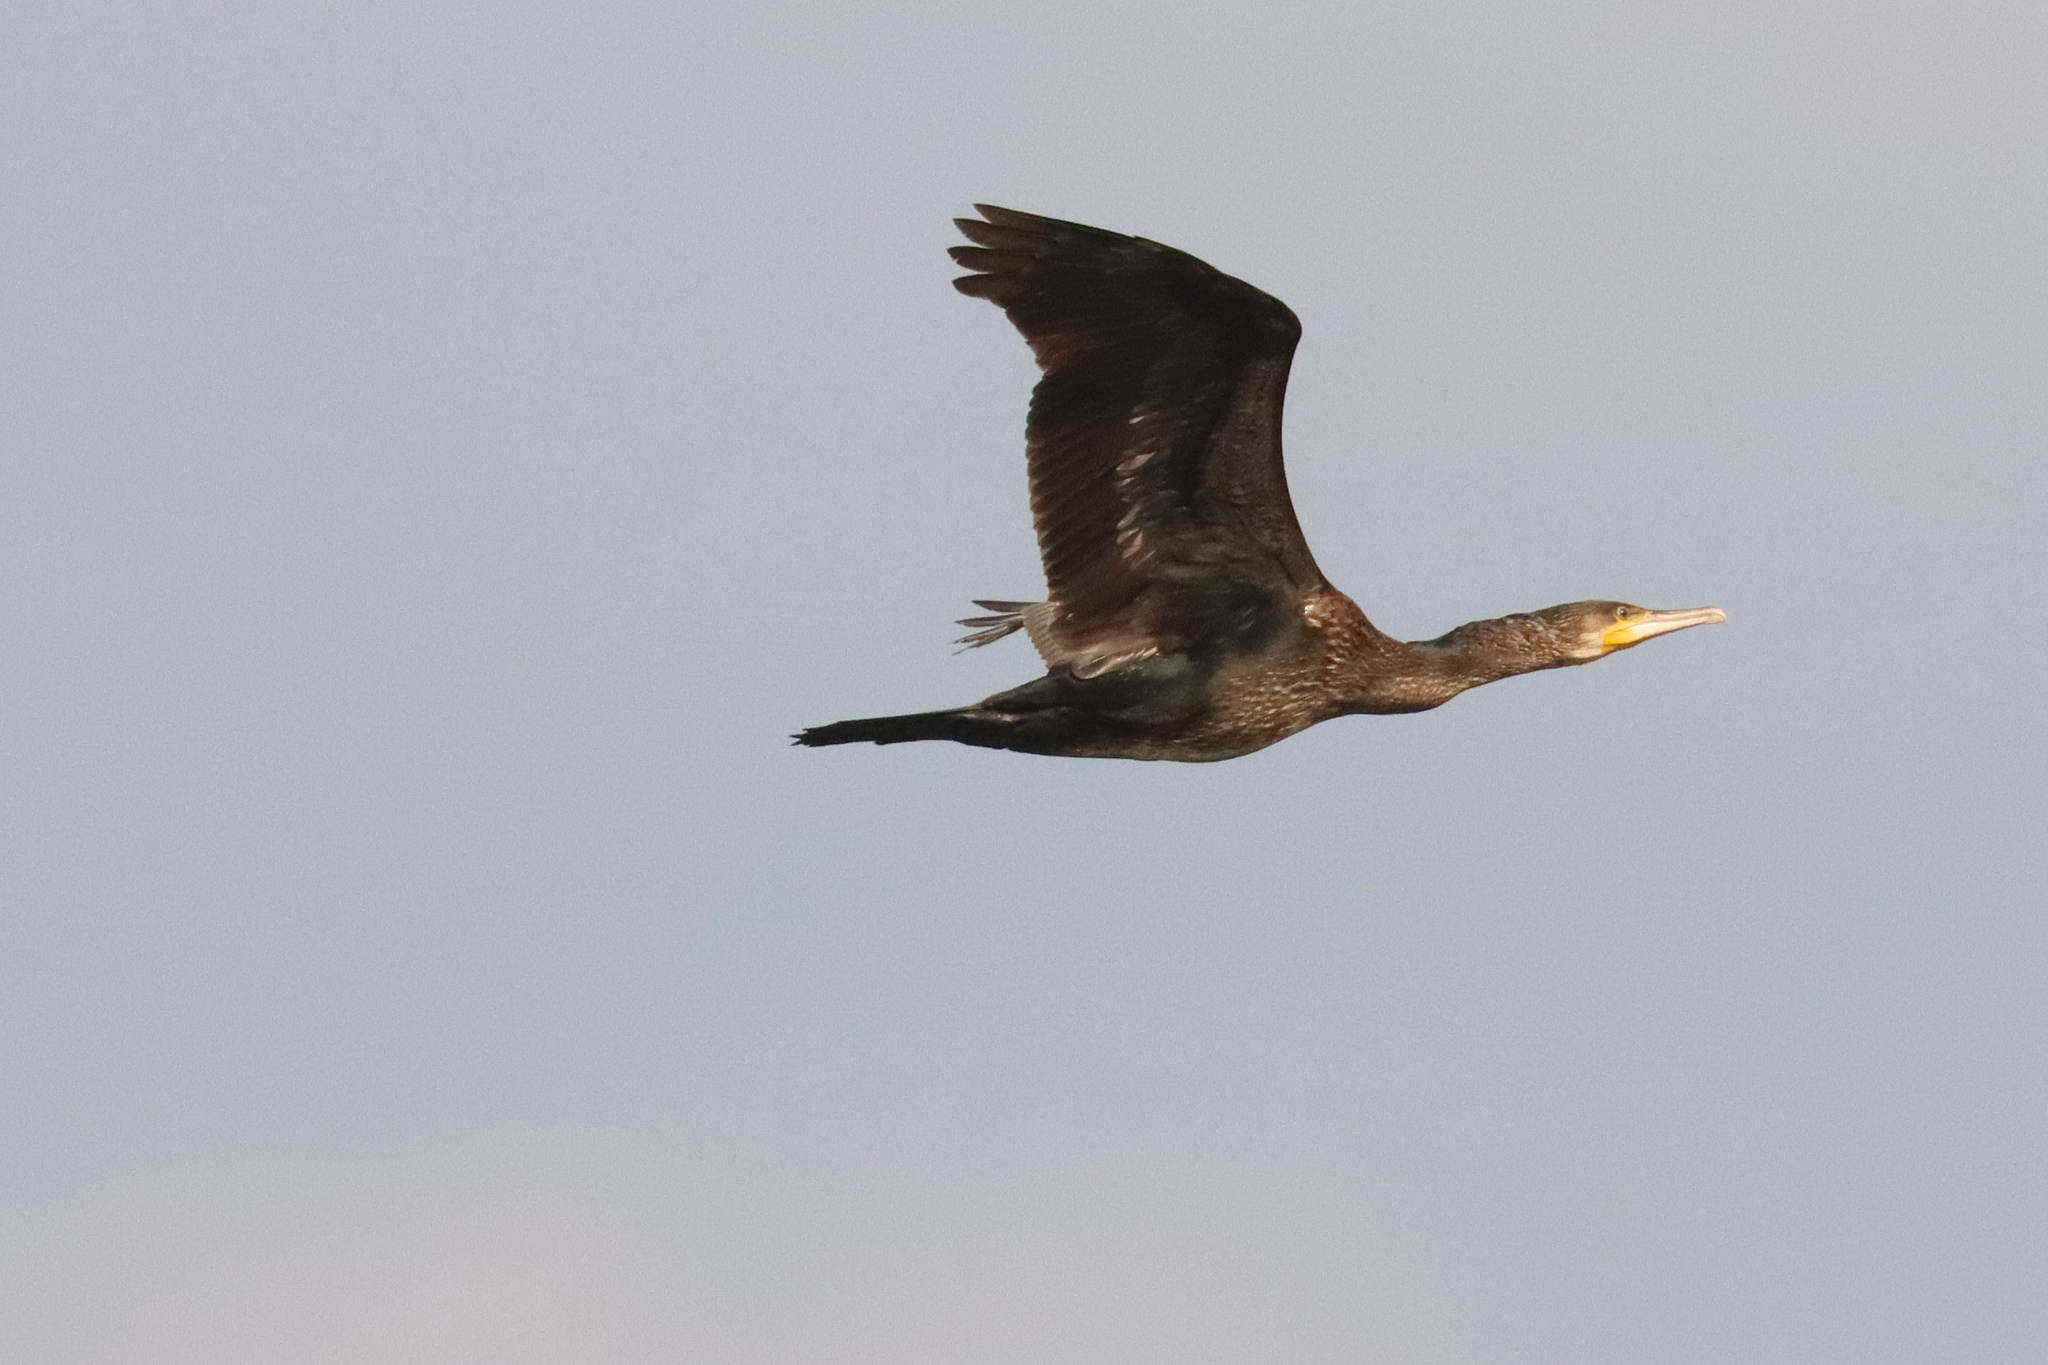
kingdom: Animalia
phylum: Chordata
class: Aves
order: Suliformes
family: Phalacrocoracidae
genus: Phalacrocorax
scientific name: Phalacrocorax carbo
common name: Great cormorant
